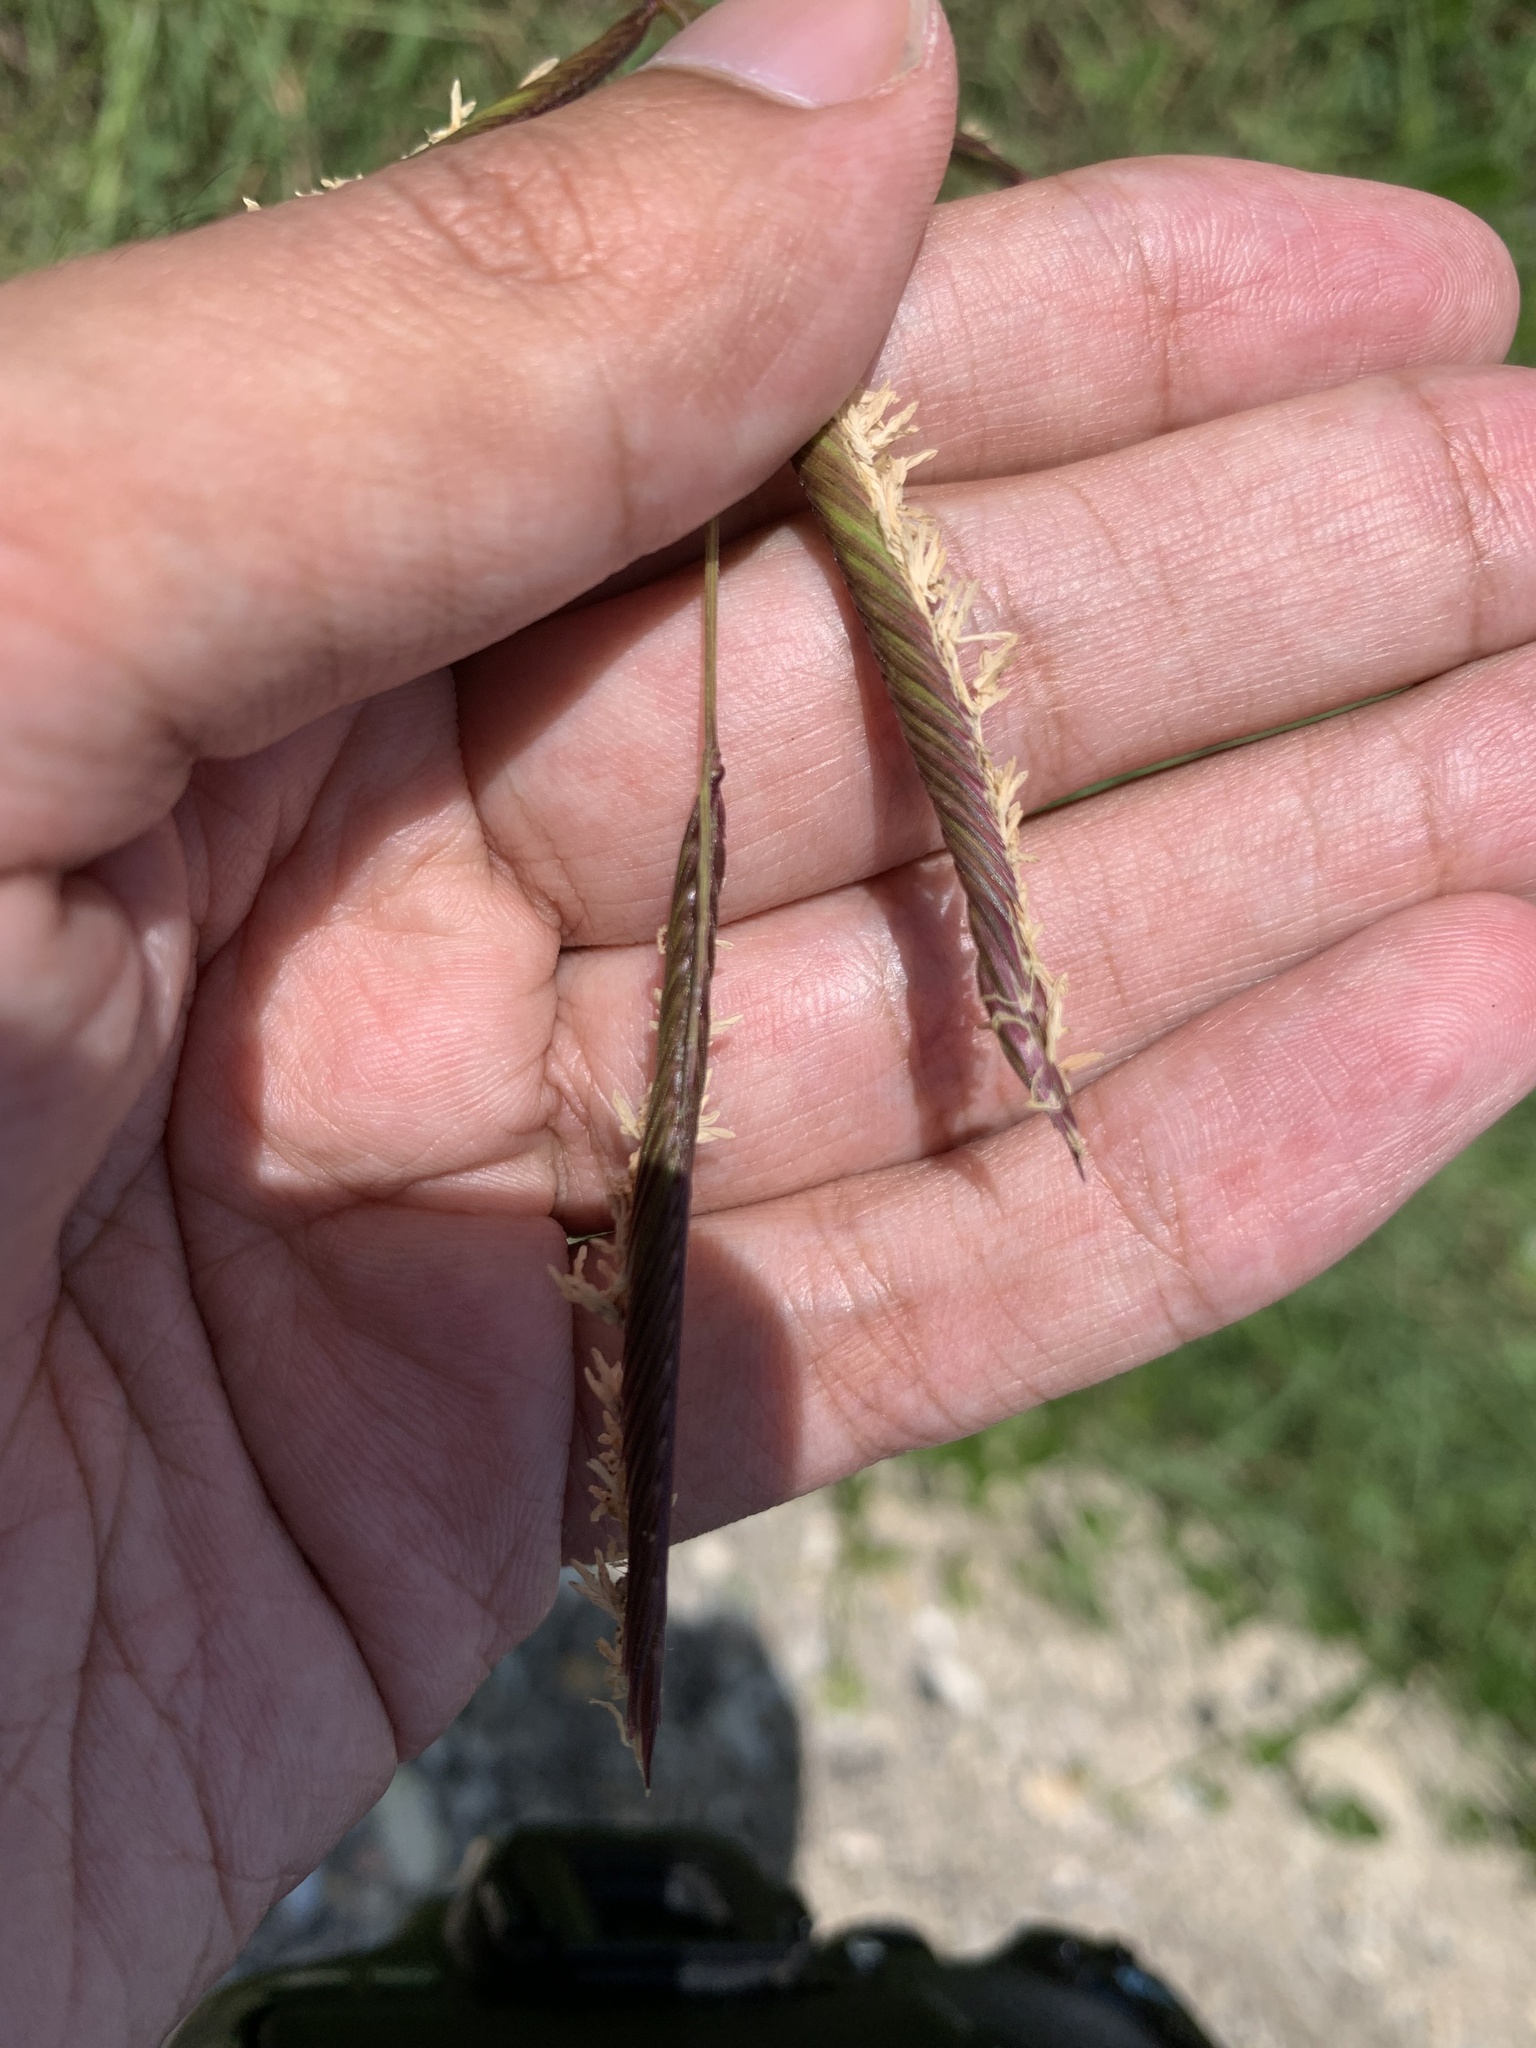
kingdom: Plantae
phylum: Tracheophyta
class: Liliopsida
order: Poales
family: Poaceae
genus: Sporobolus
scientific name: Sporobolus pumilus
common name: Highwater grass
